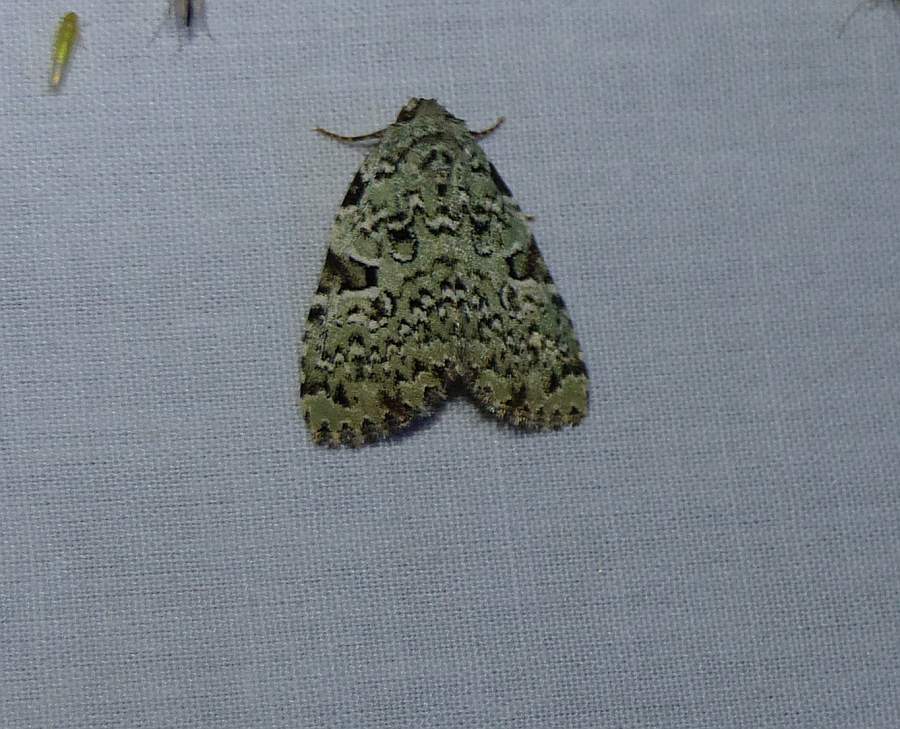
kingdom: Animalia
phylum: Arthropoda
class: Insecta
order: Lepidoptera
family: Noctuidae
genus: Leuconycta
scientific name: Leuconycta diphteroides
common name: Green leuconycta moth
